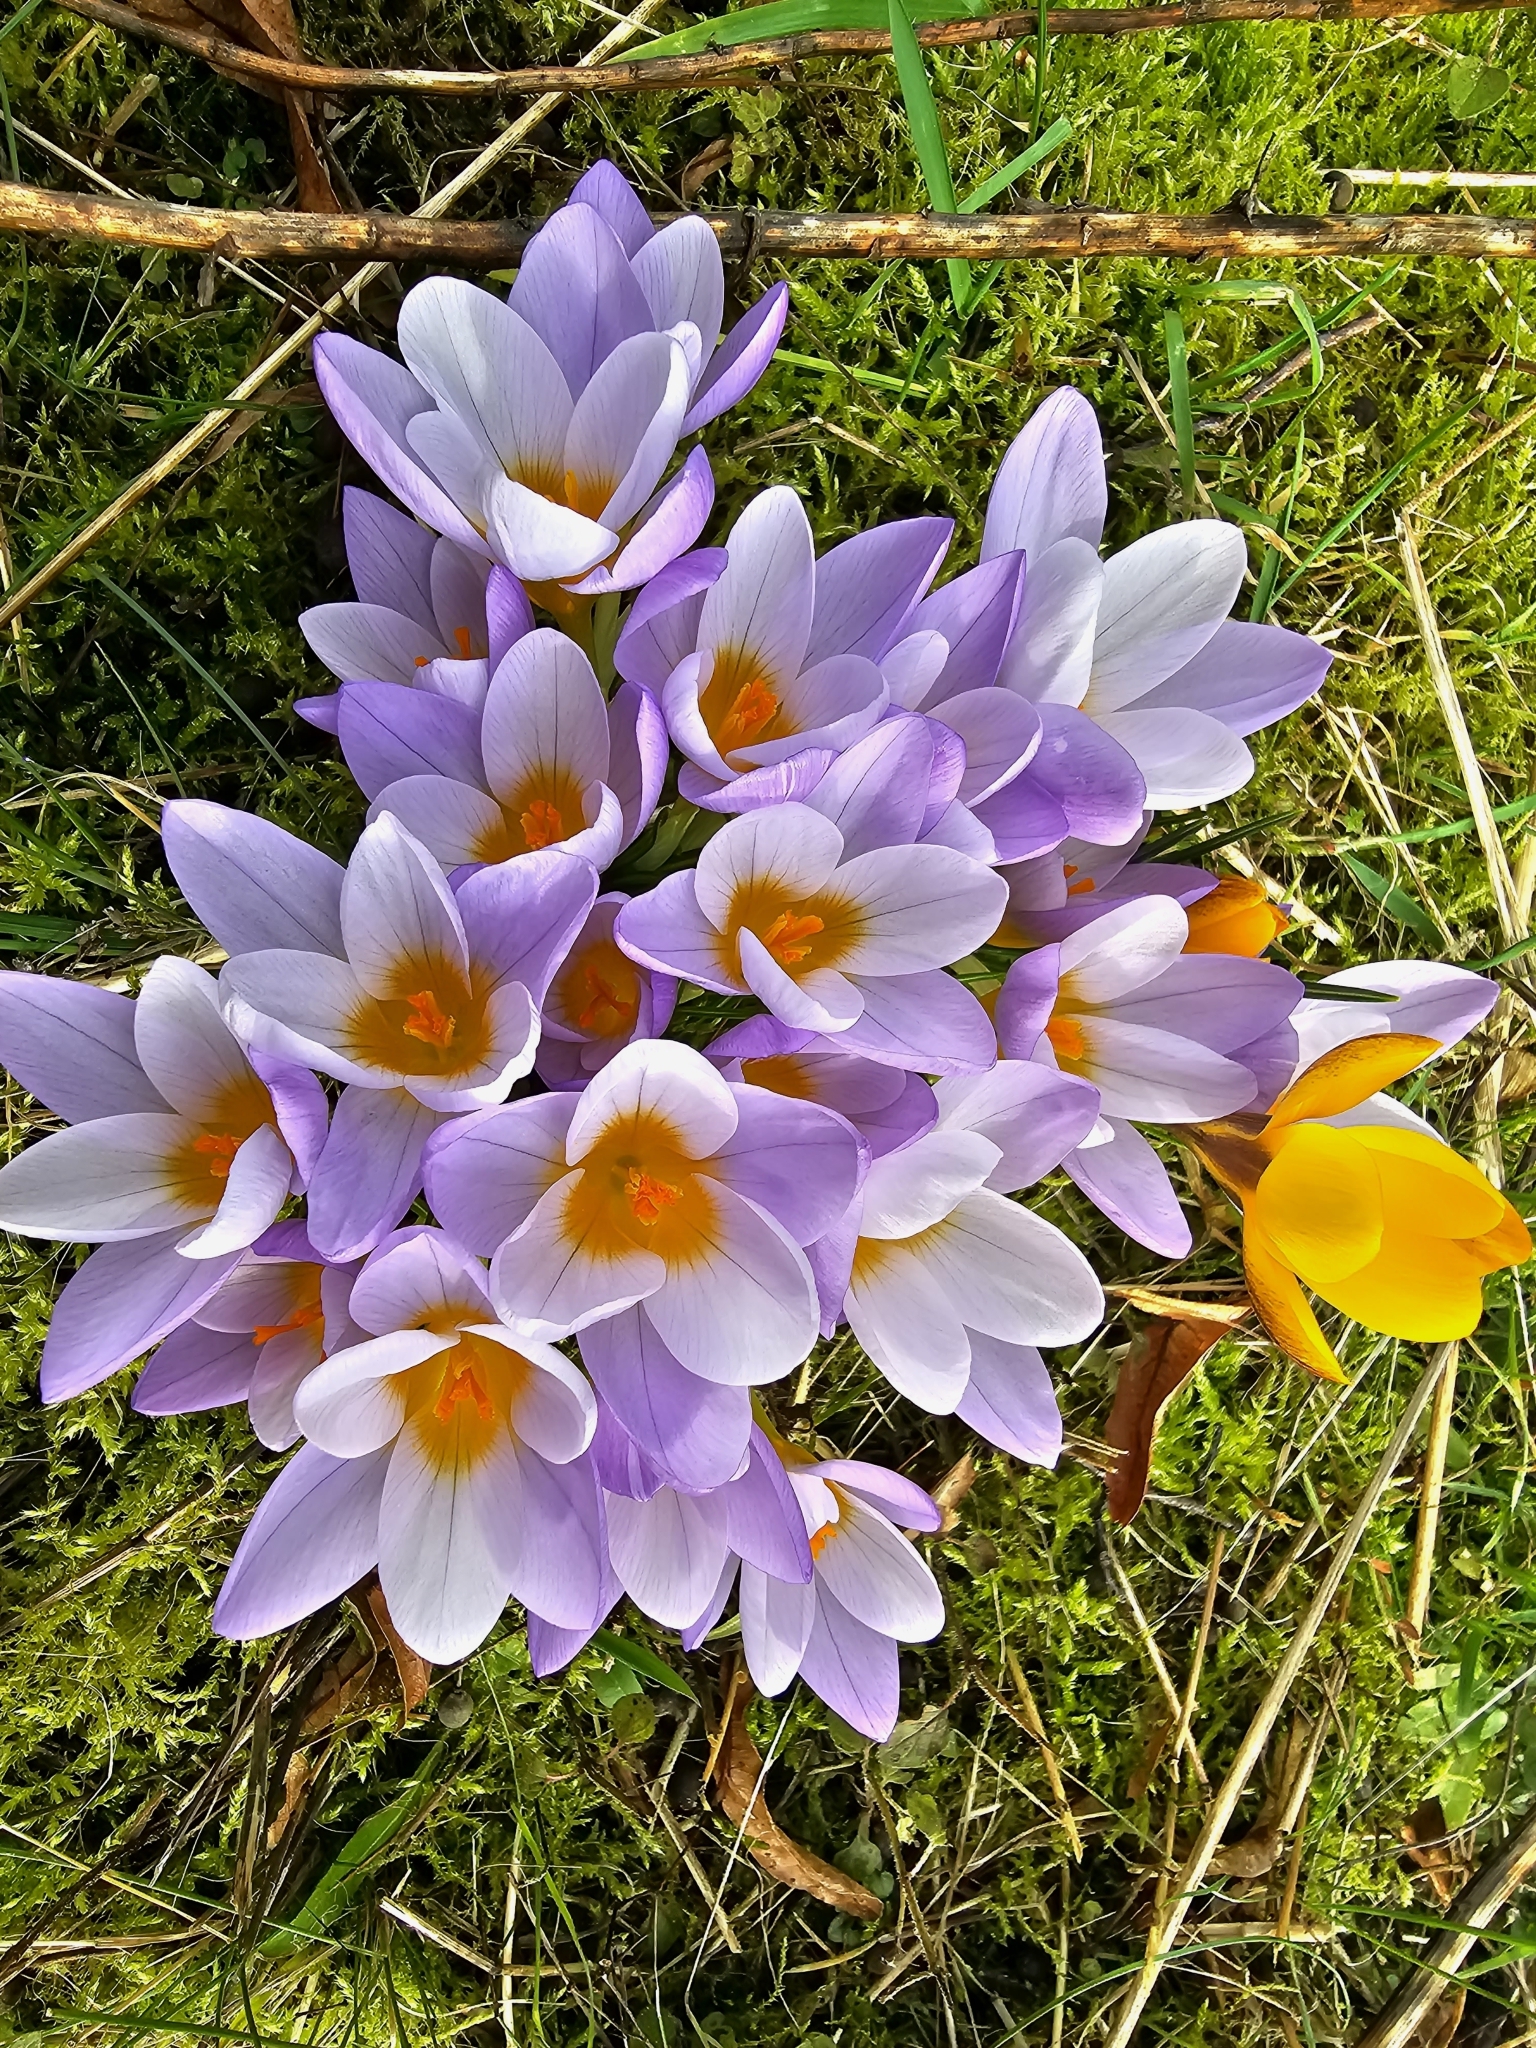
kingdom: Plantae
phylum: Tracheophyta
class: Liliopsida
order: Asparagales
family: Iridaceae
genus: Crocus
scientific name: Crocus nivalis
